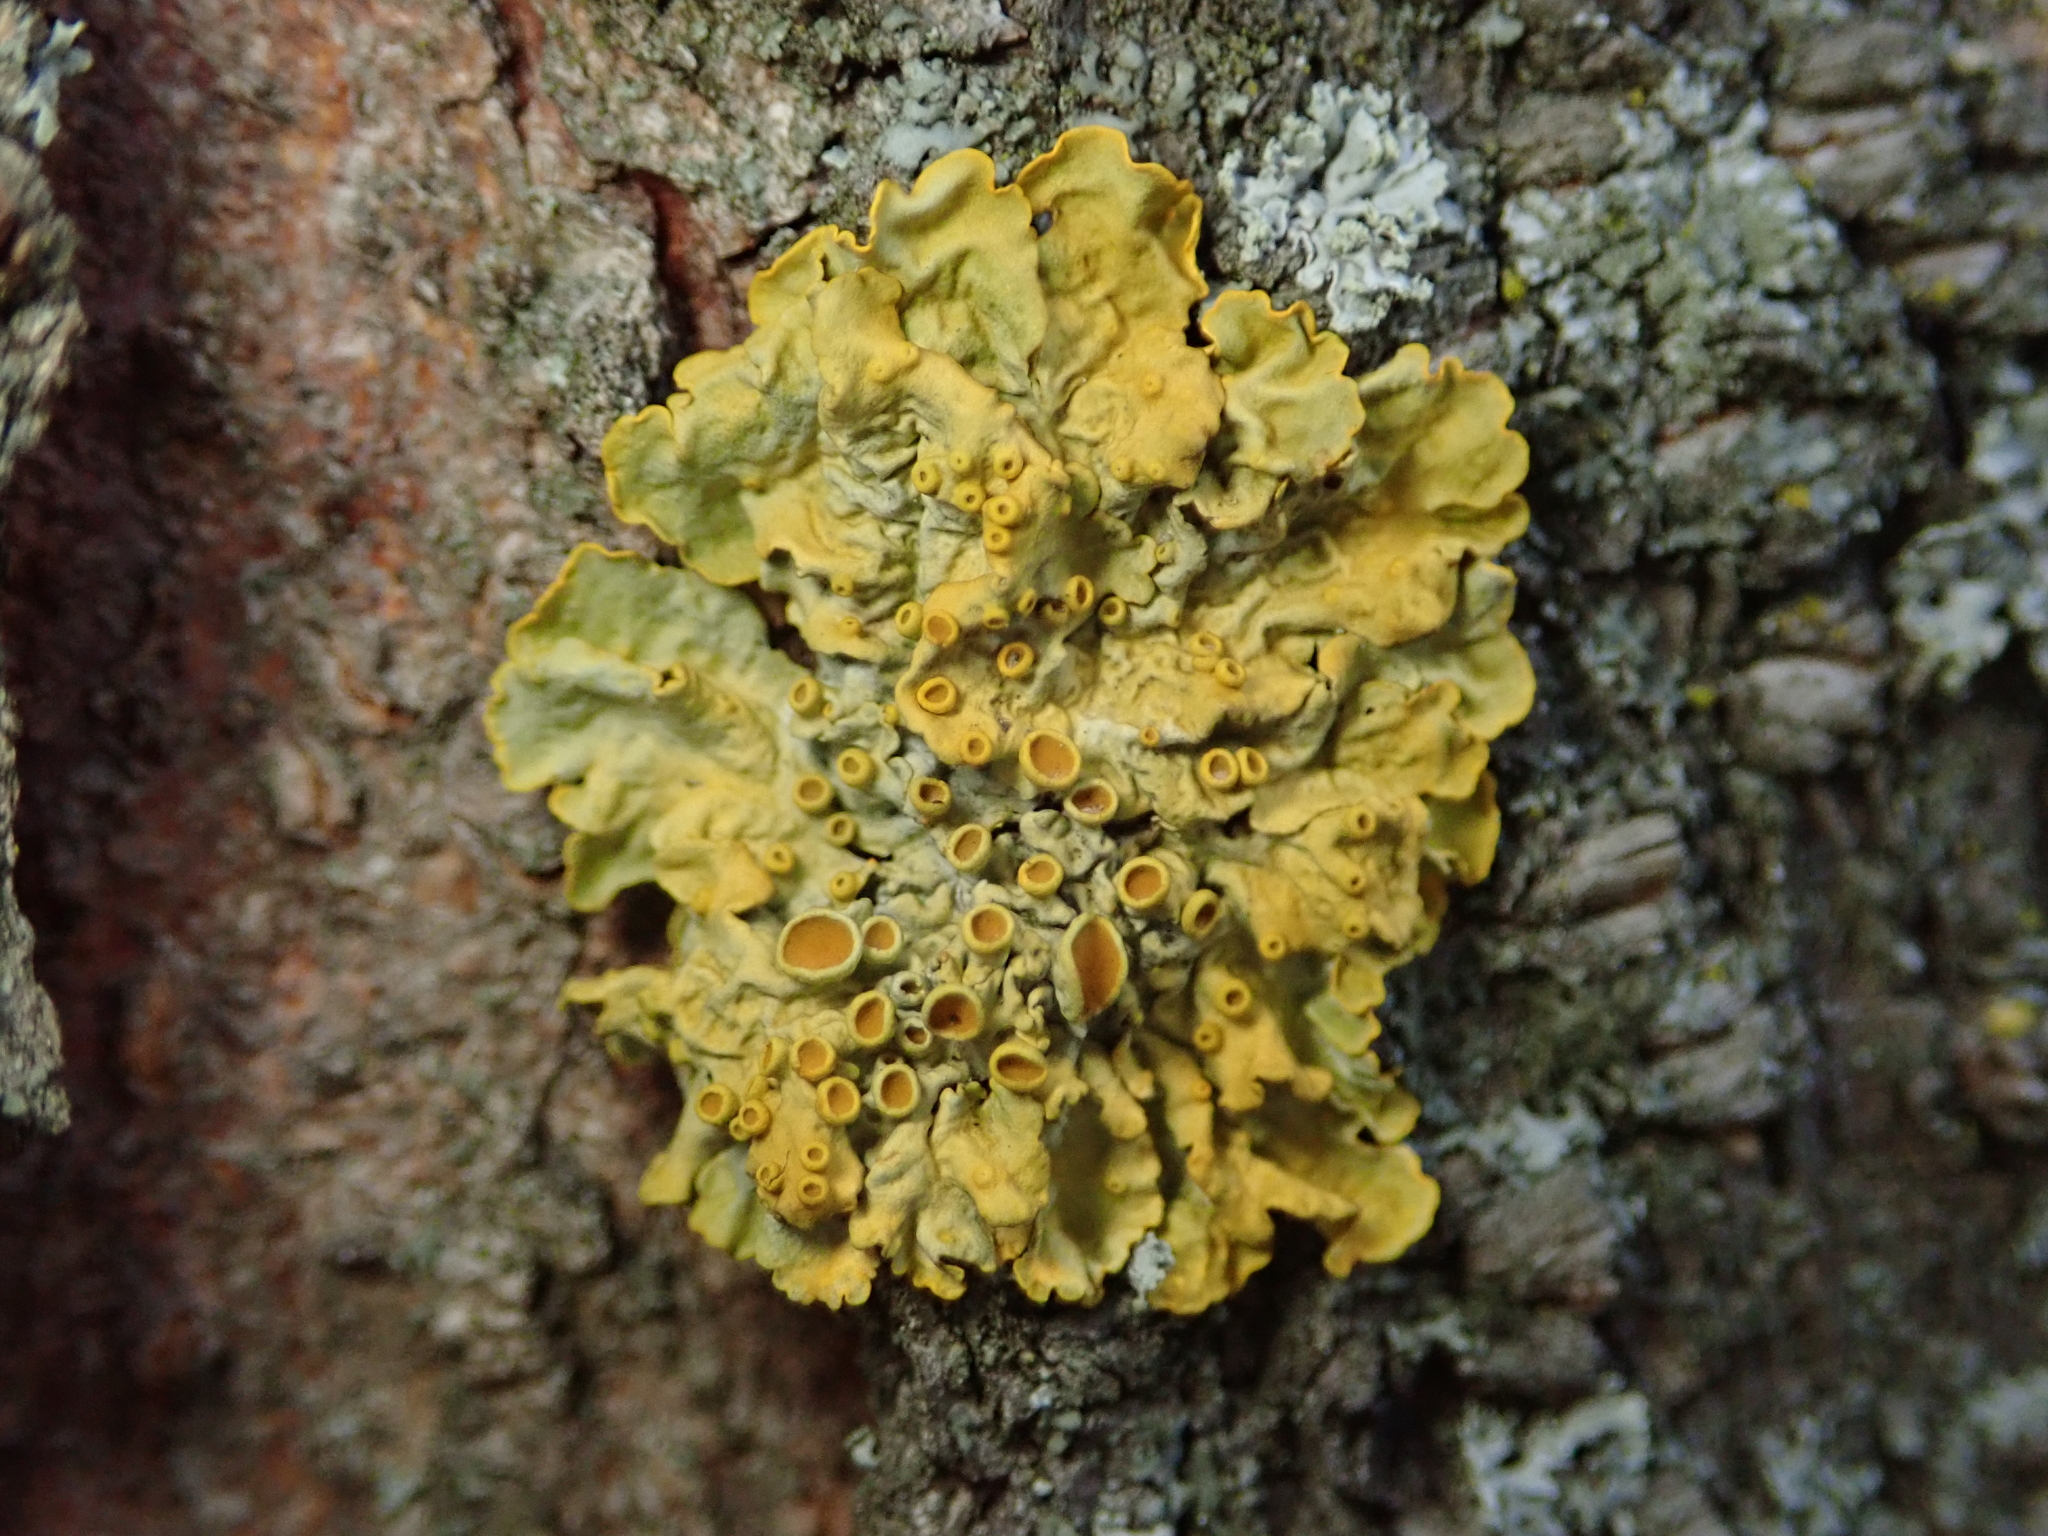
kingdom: Fungi
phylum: Ascomycota
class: Lecanoromycetes
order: Teloschistales
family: Teloschistaceae
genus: Xanthoria
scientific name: Xanthoria parietina
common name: Common orange lichen
